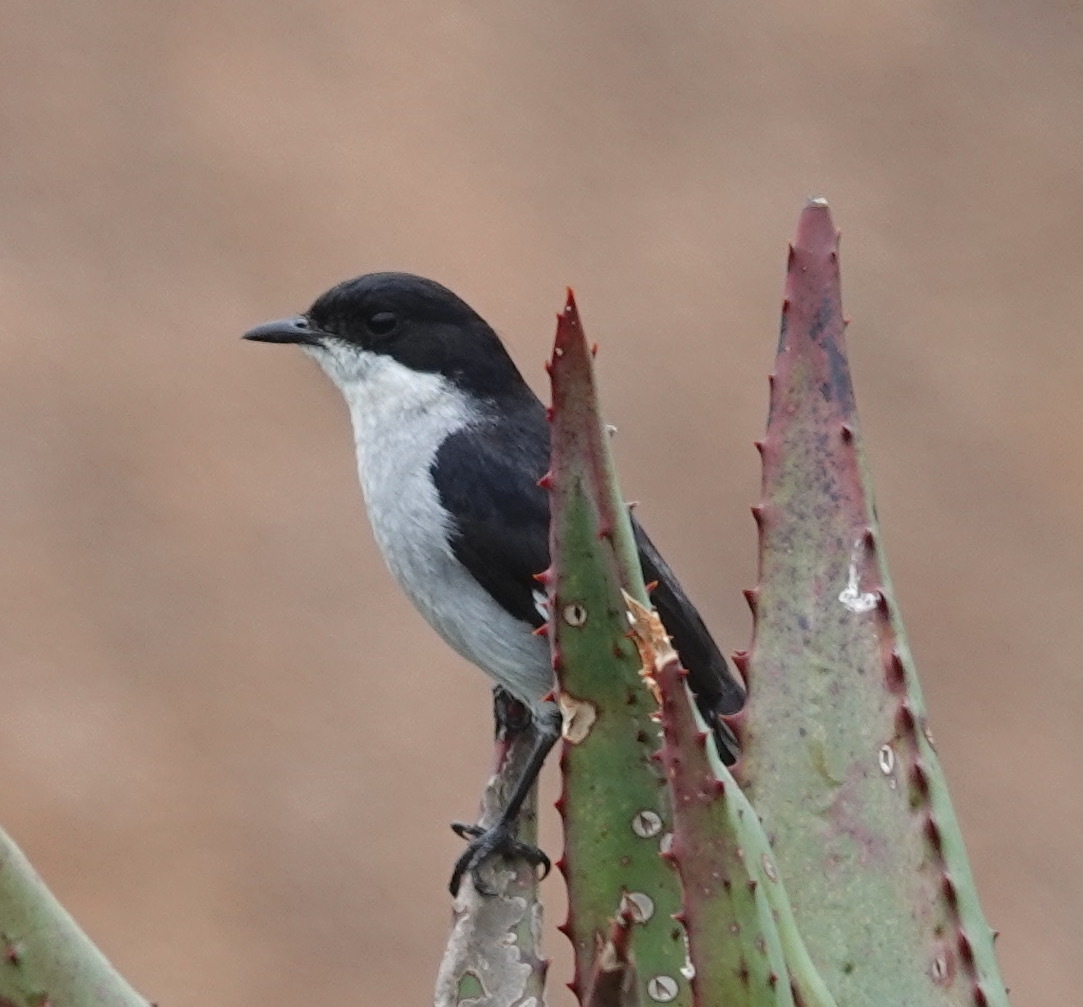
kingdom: Animalia
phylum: Chordata
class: Aves
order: Passeriformes
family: Muscicapidae
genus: Sigelus
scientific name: Sigelus silens
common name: Fiscal flycatcher
